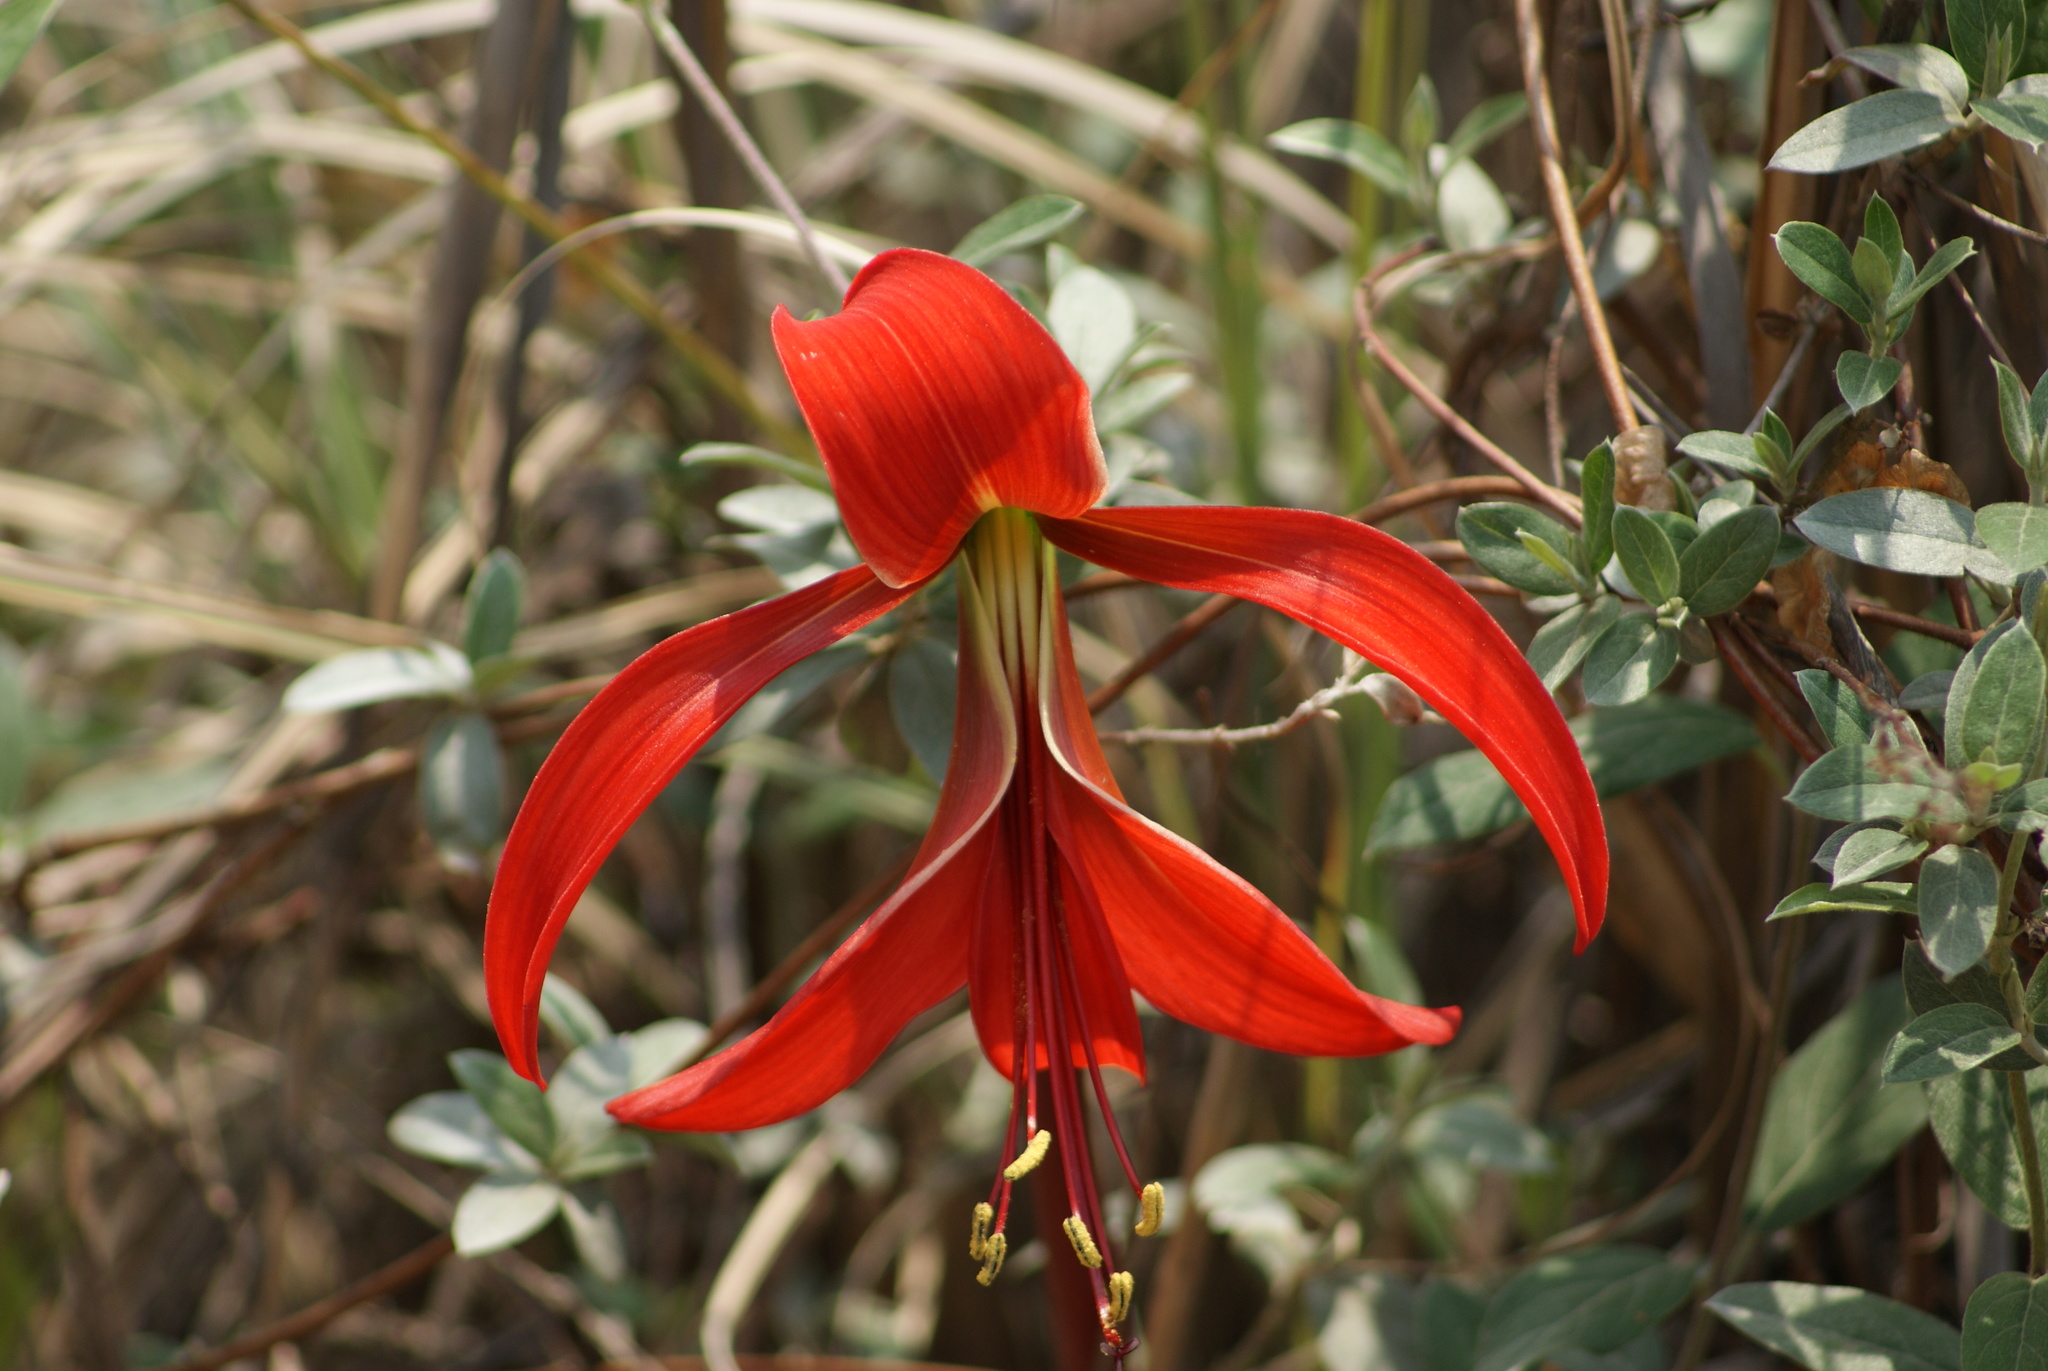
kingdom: Plantae
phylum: Tracheophyta
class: Liliopsida
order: Asparagales
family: Amaryllidaceae
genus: Sprekelia
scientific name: Sprekelia formosissima
